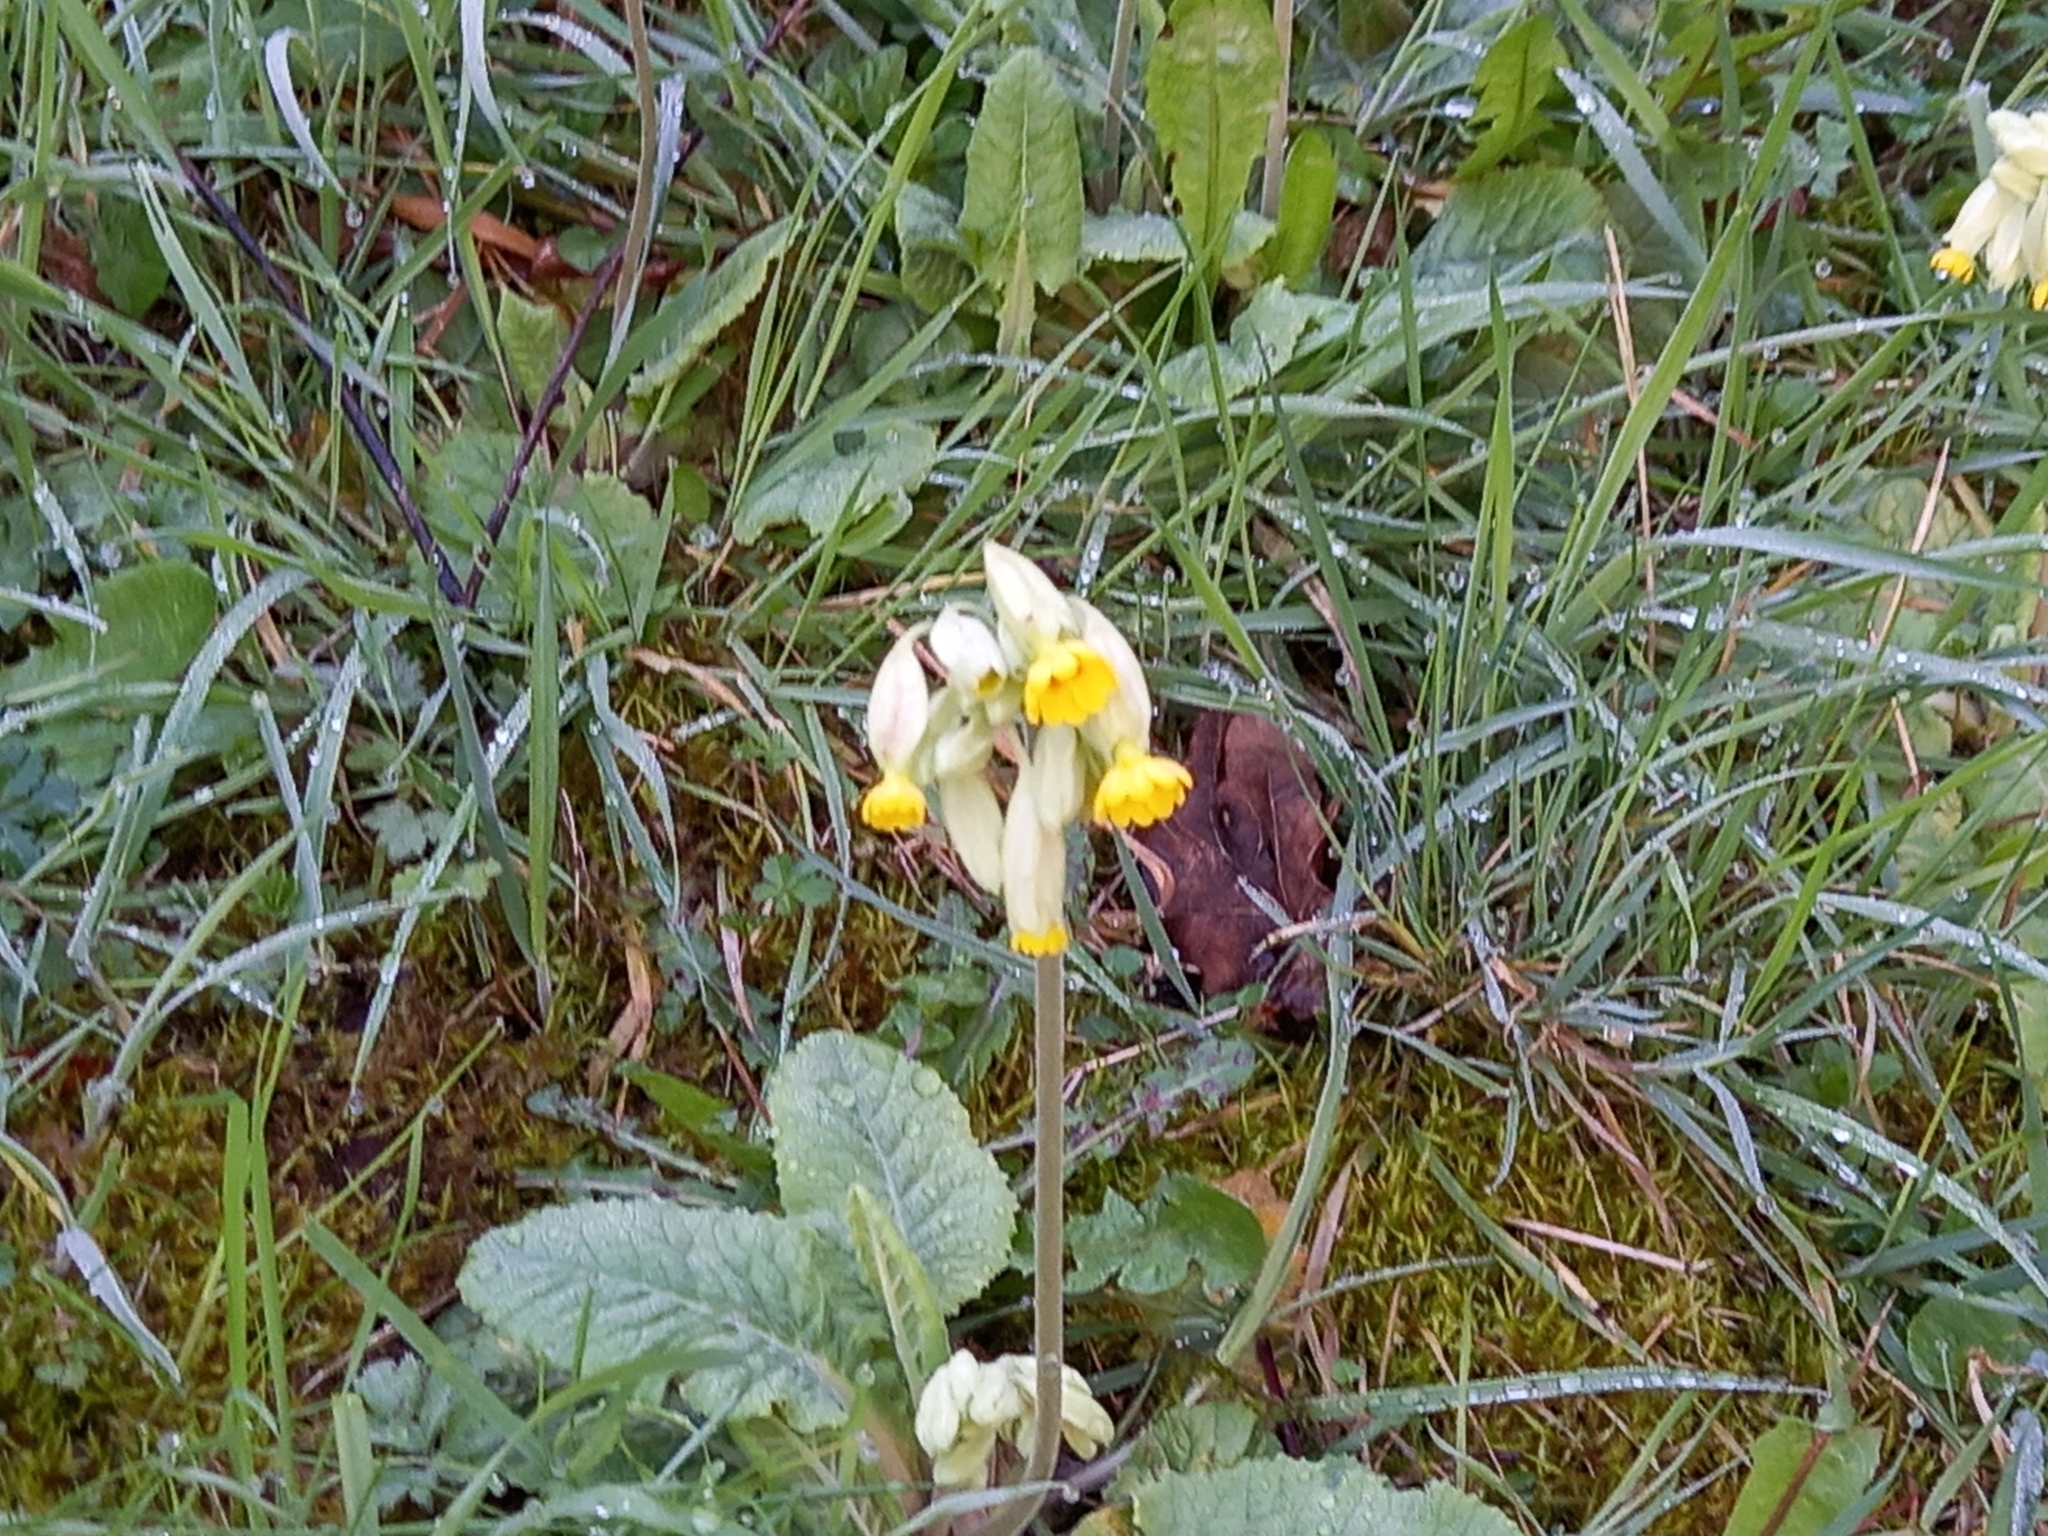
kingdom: Plantae
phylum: Tracheophyta
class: Magnoliopsida
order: Ericales
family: Primulaceae
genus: Primula
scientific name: Primula veris
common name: Cowslip
